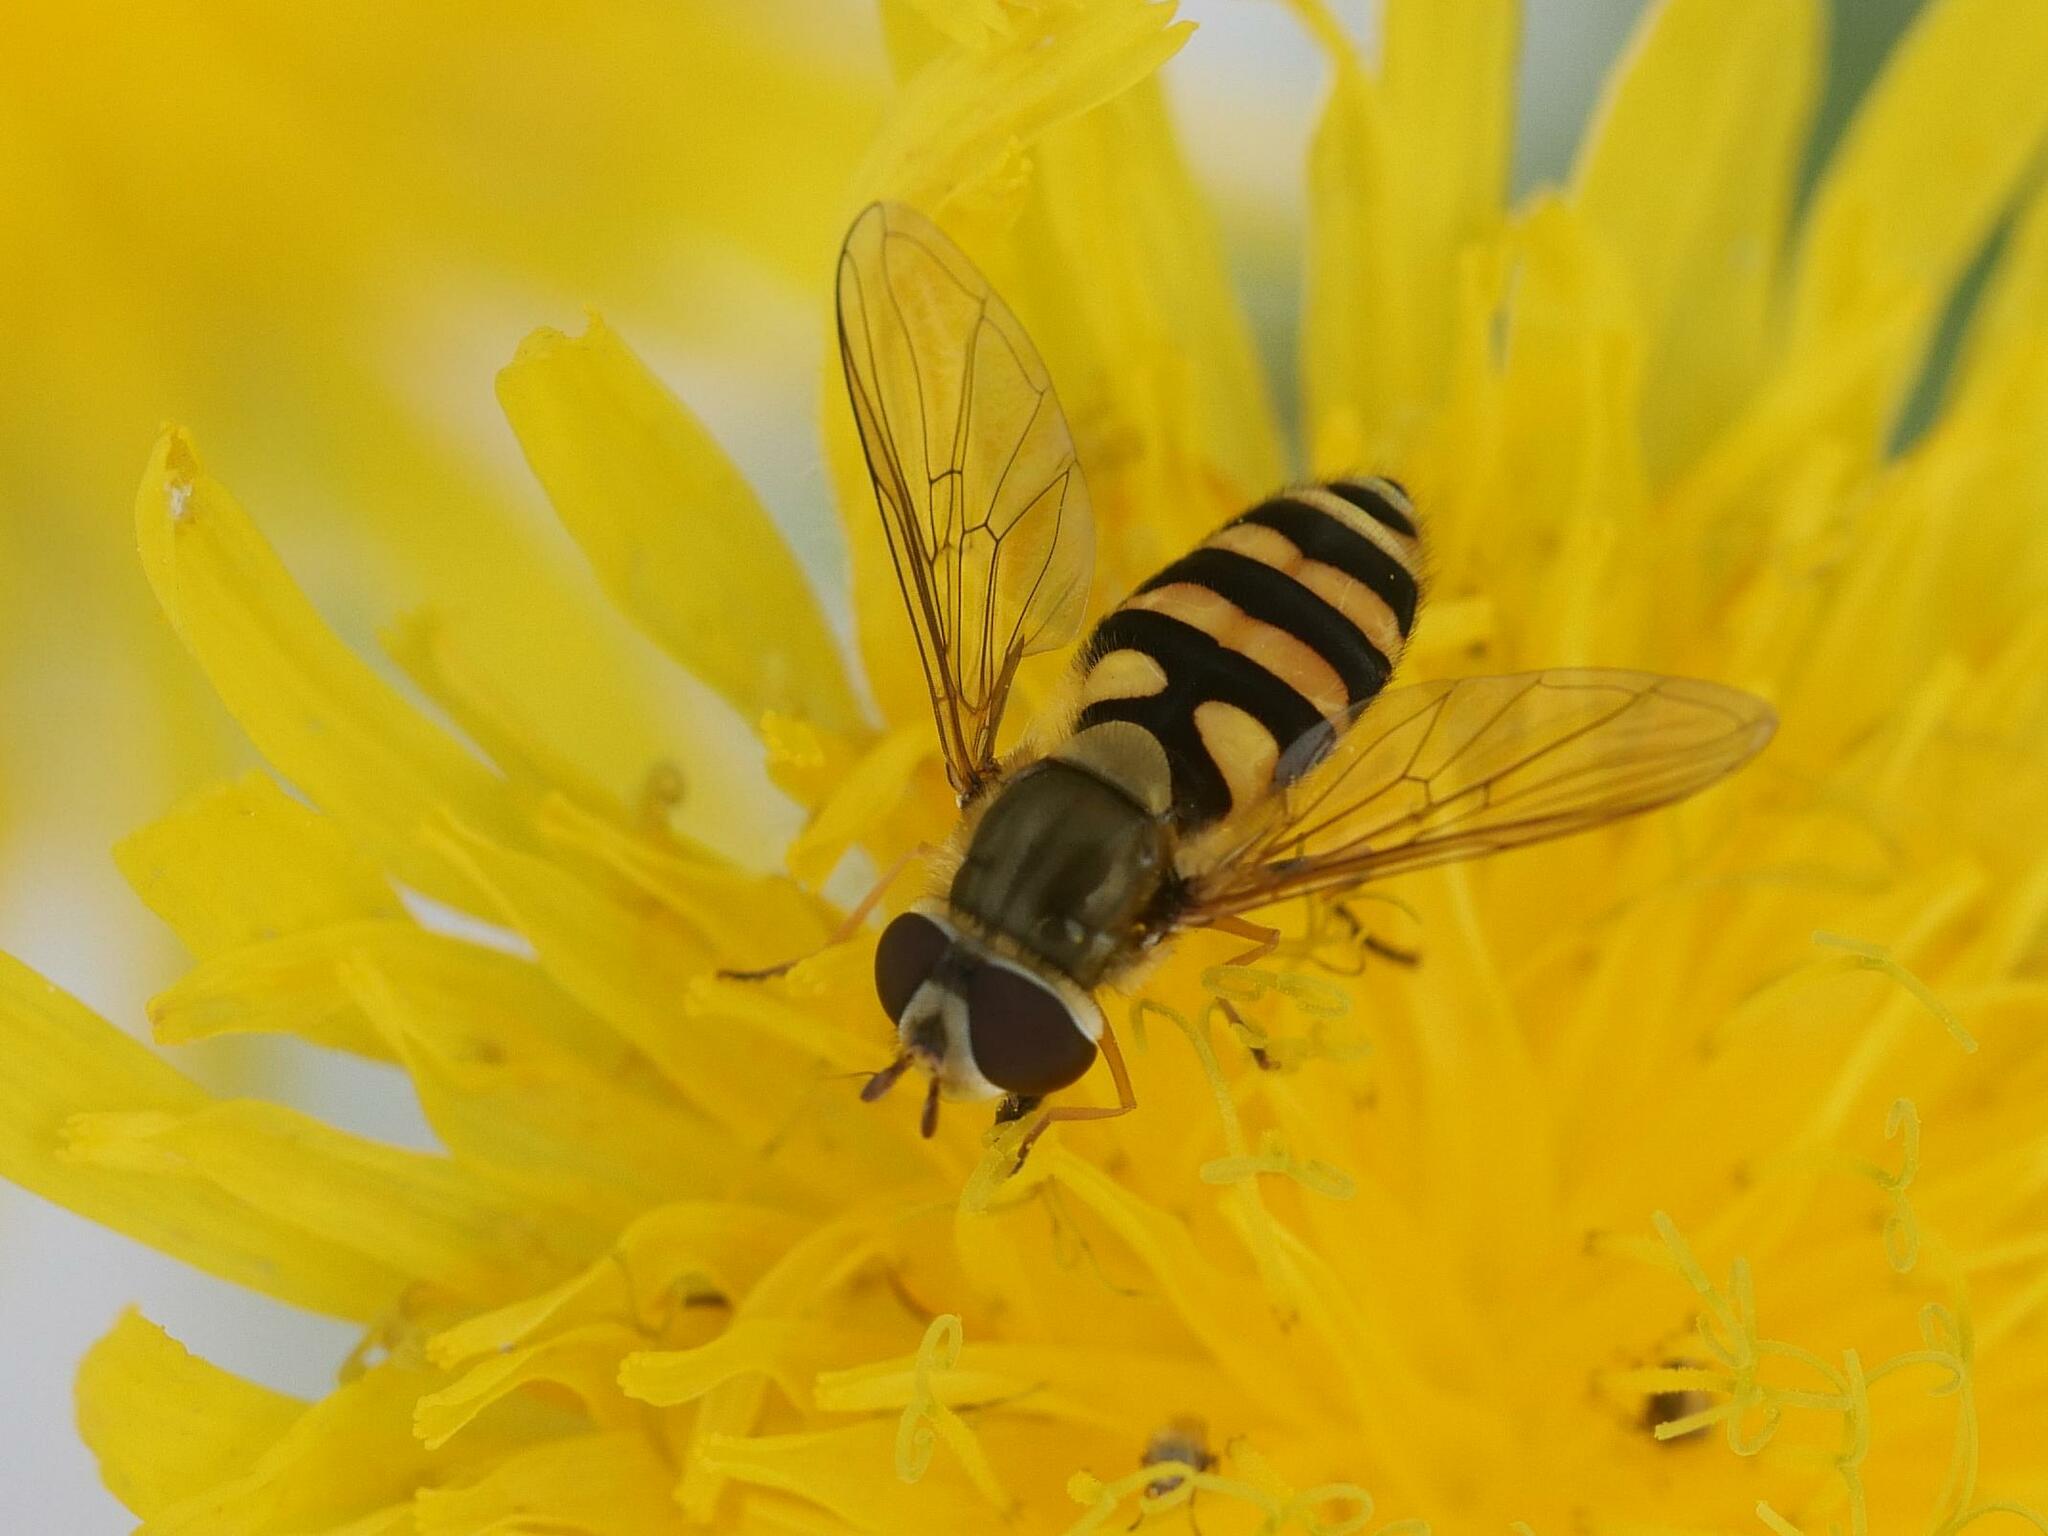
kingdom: Animalia
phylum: Arthropoda
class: Insecta
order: Diptera
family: Syrphidae
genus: Syrphus
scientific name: Syrphus rectus
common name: Yellow-legged flower fly
